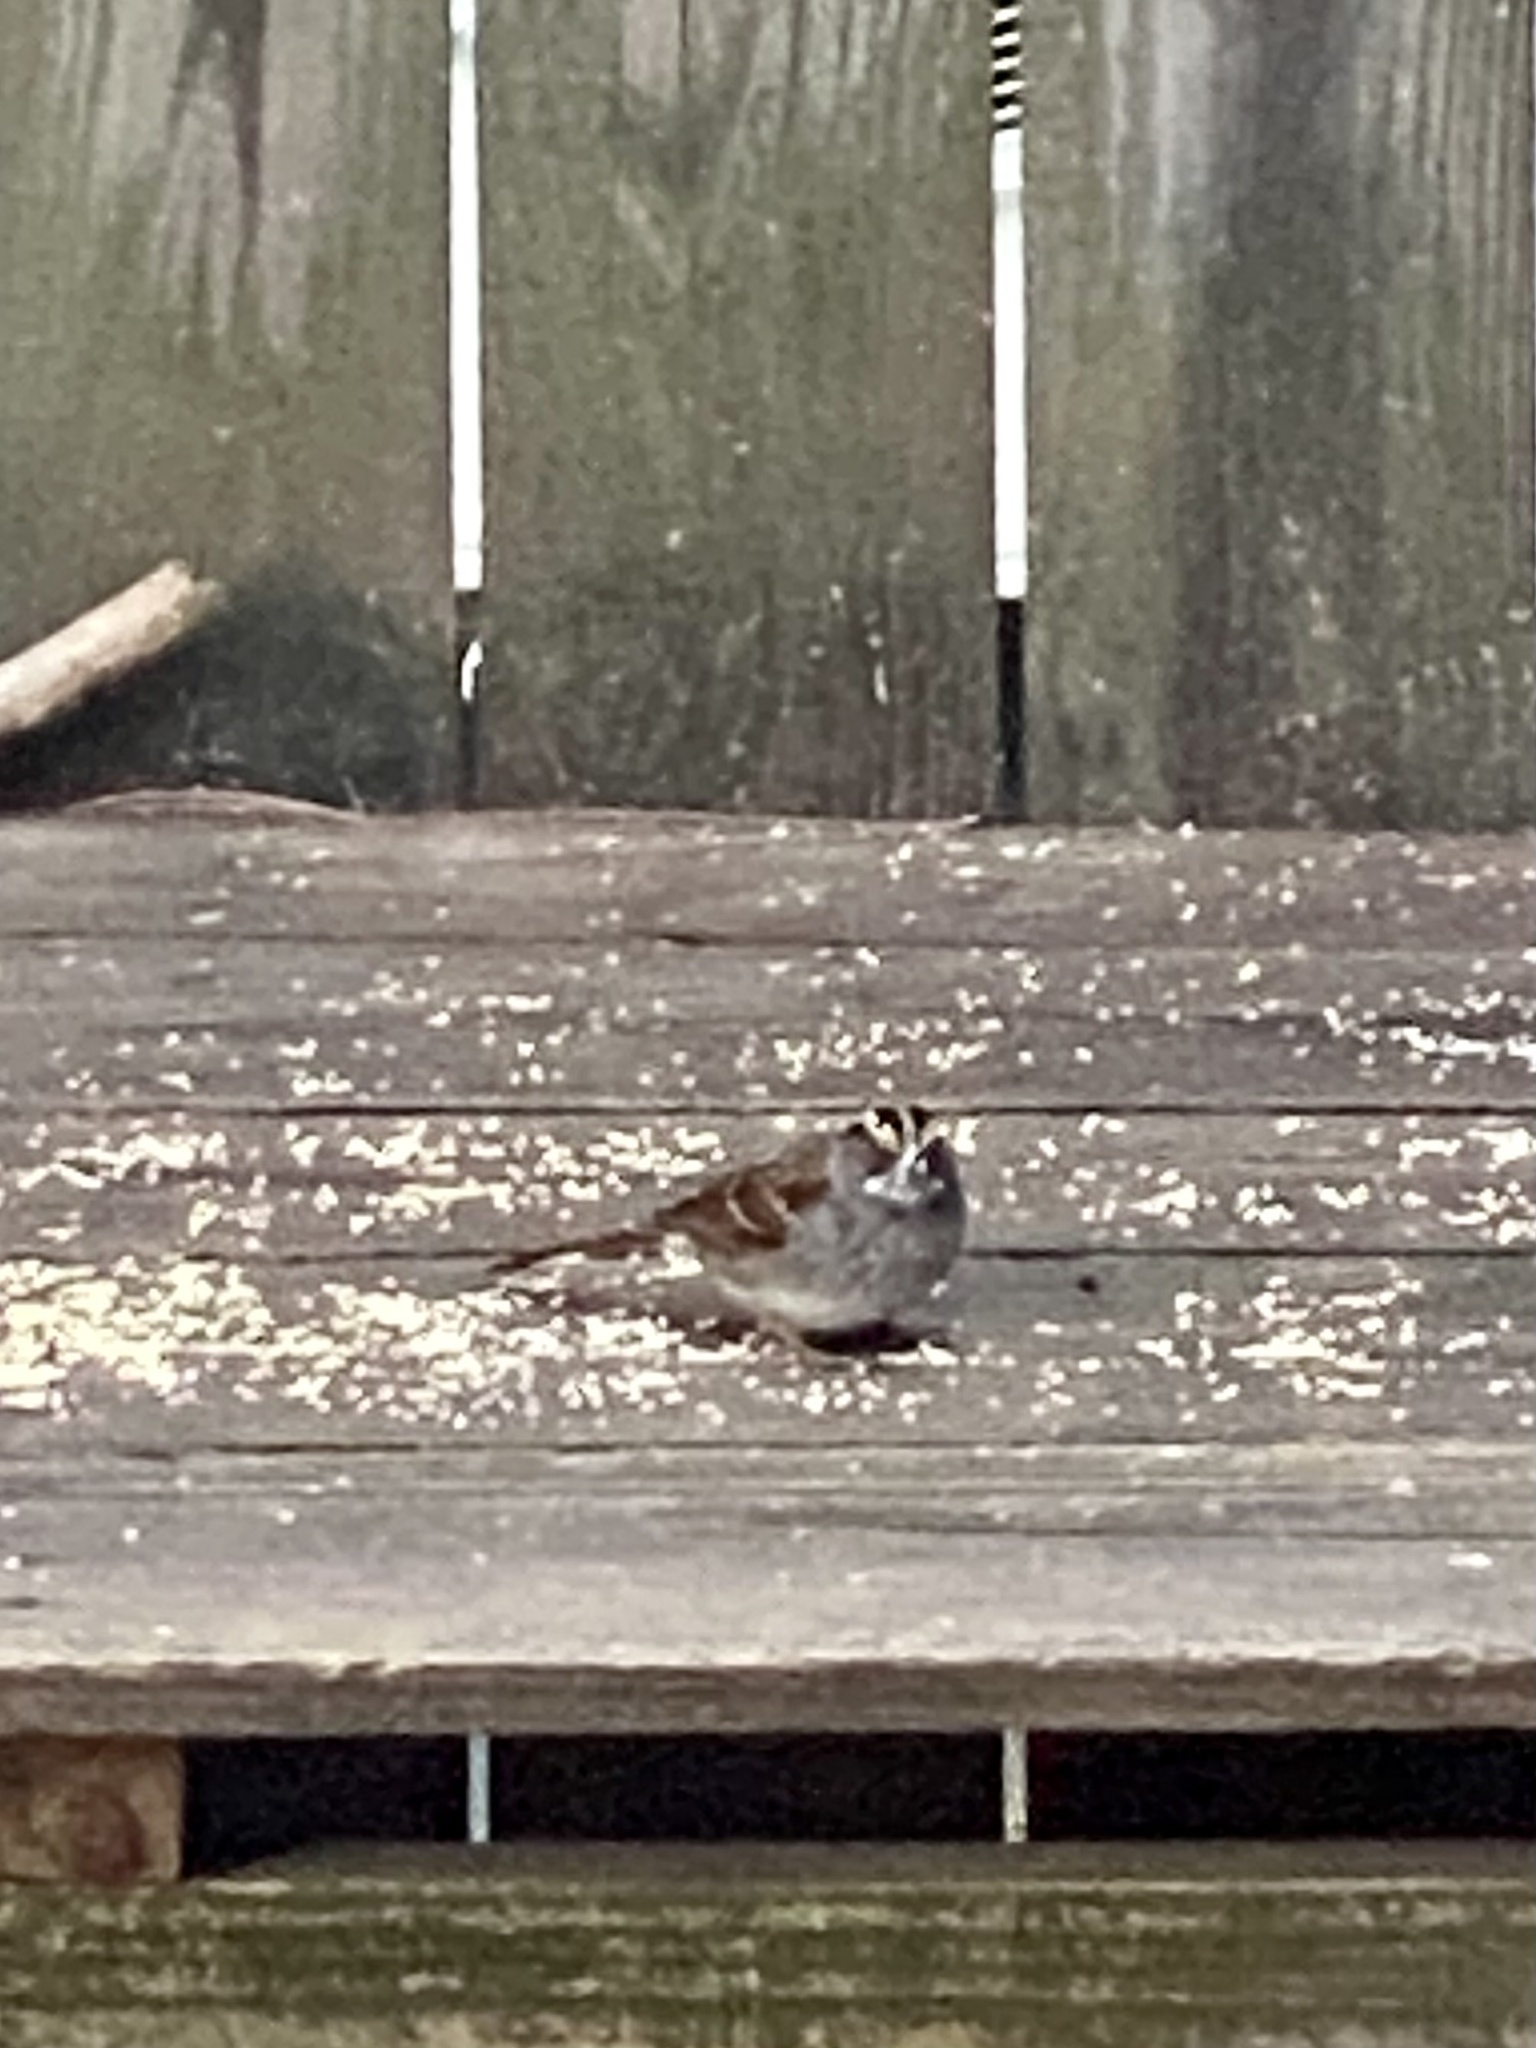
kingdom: Animalia
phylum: Chordata
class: Aves
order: Passeriformes
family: Passerellidae
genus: Zonotrichia
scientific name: Zonotrichia albicollis
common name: White-throated sparrow
